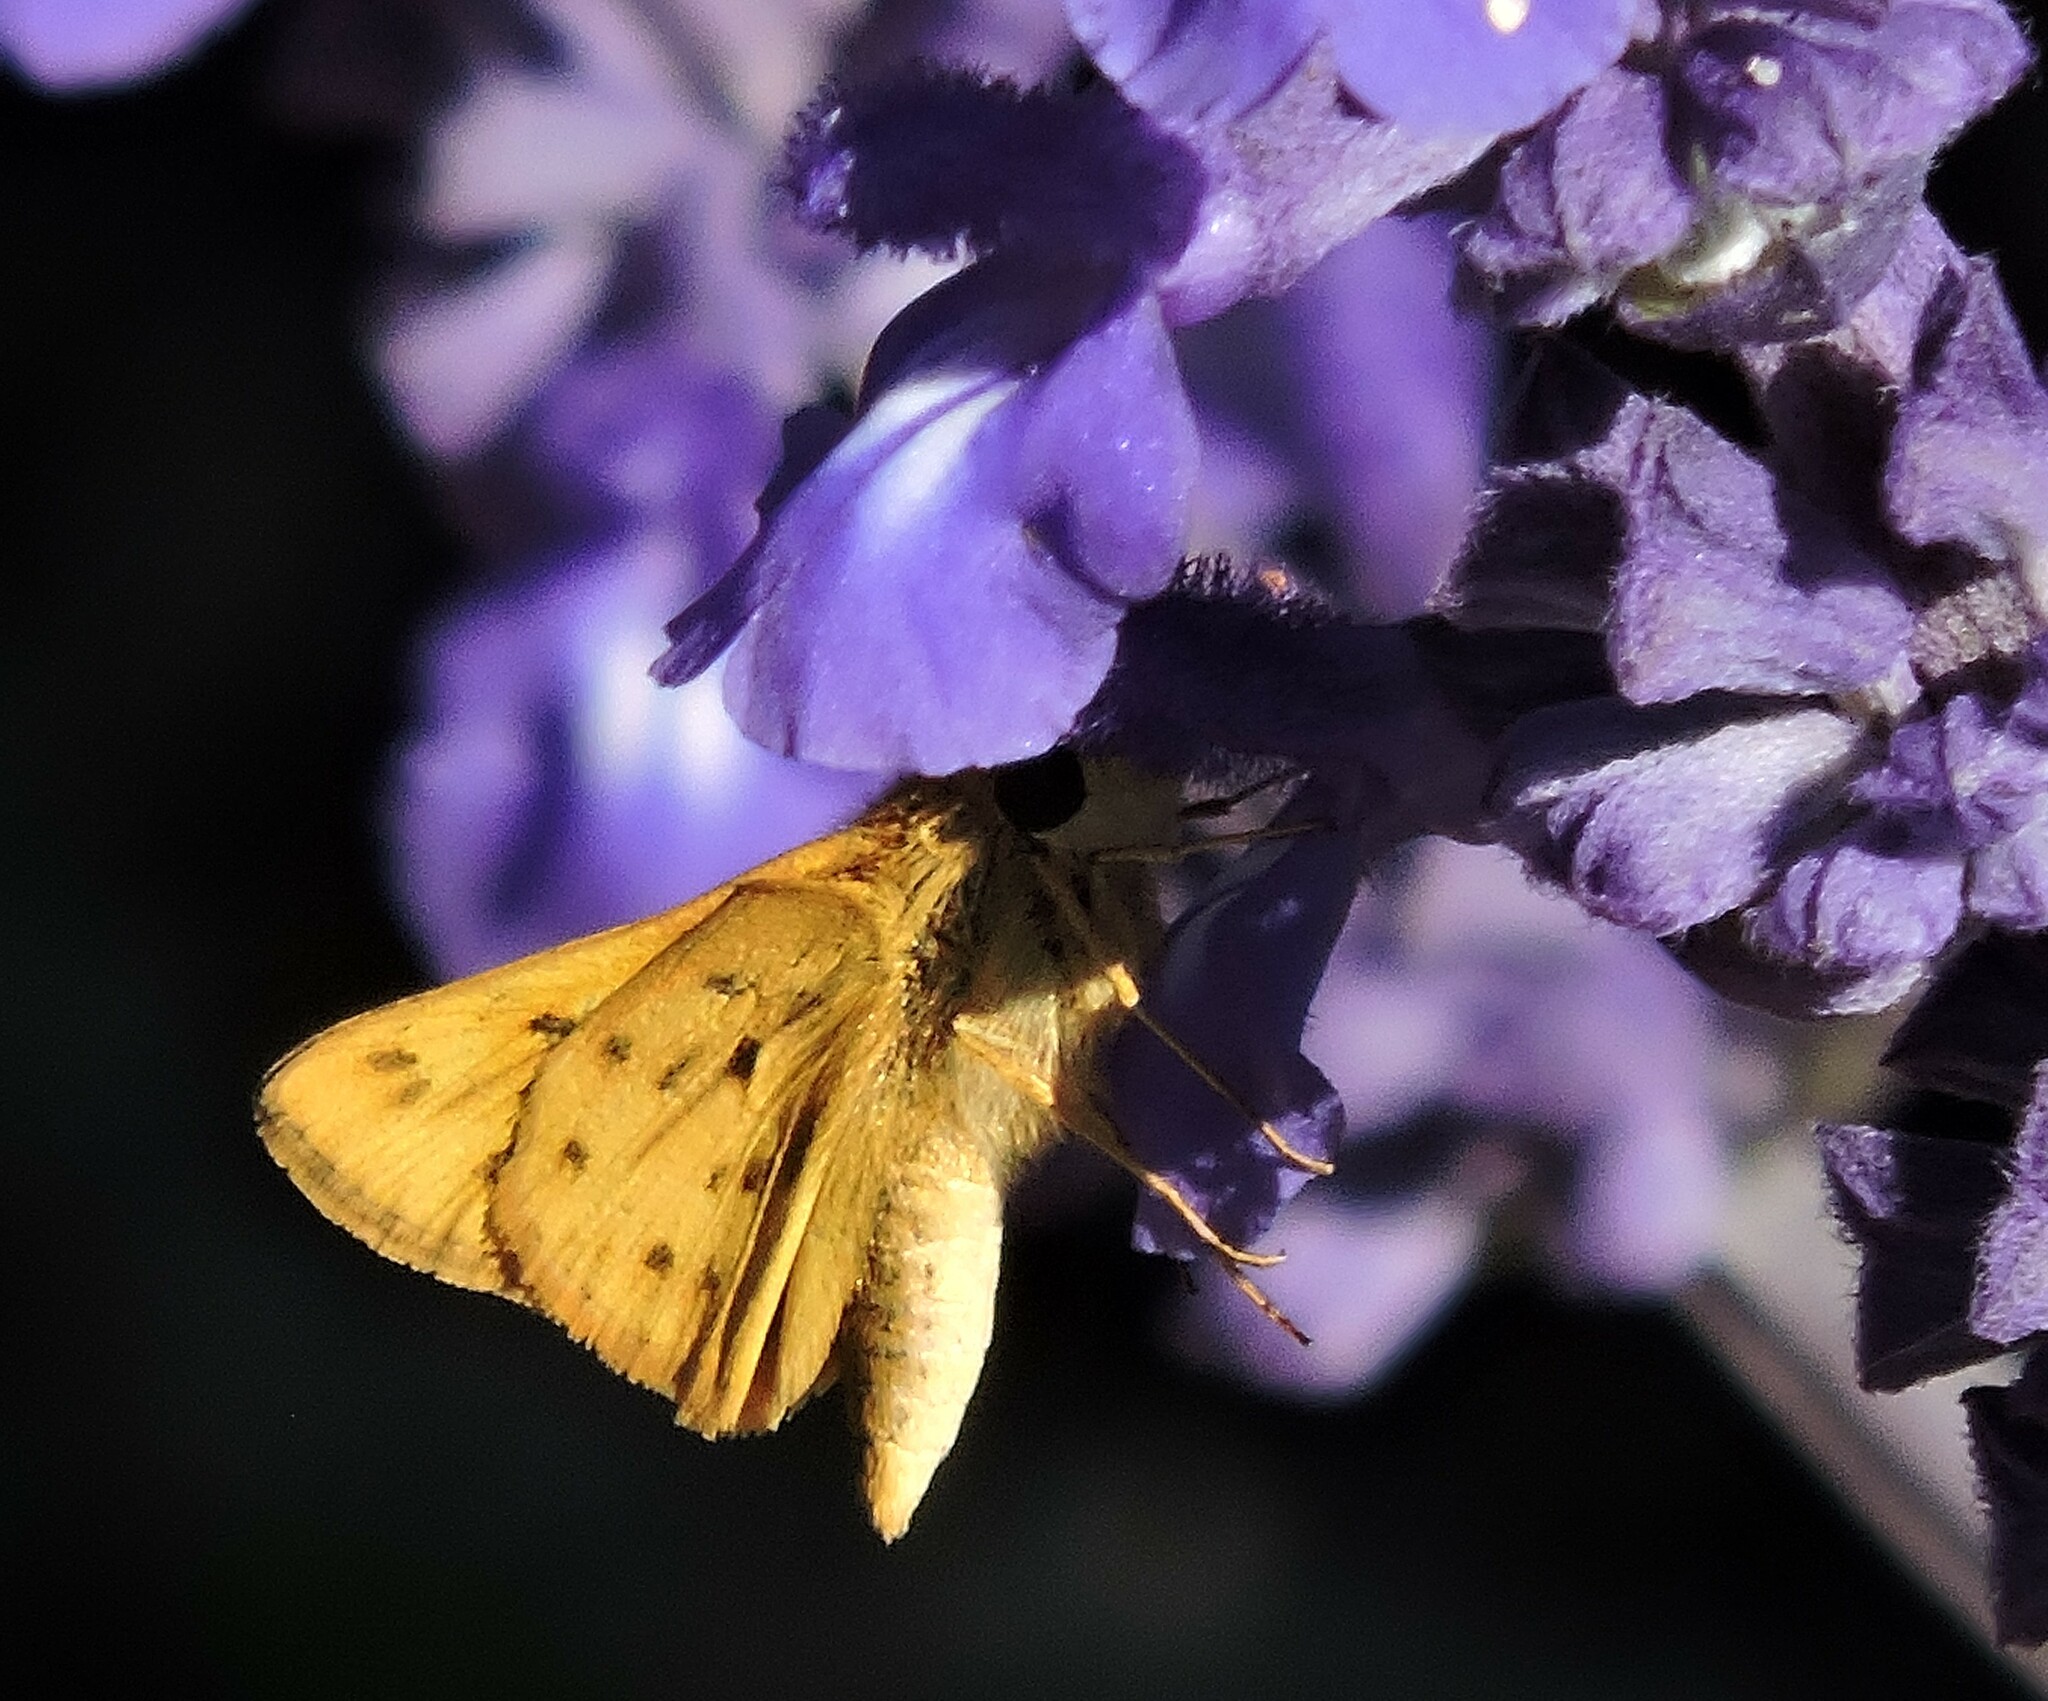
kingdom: Animalia
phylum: Arthropoda
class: Insecta
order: Lepidoptera
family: Hesperiidae
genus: Hylephila
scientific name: Hylephila phyleus
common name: Fiery skipper
